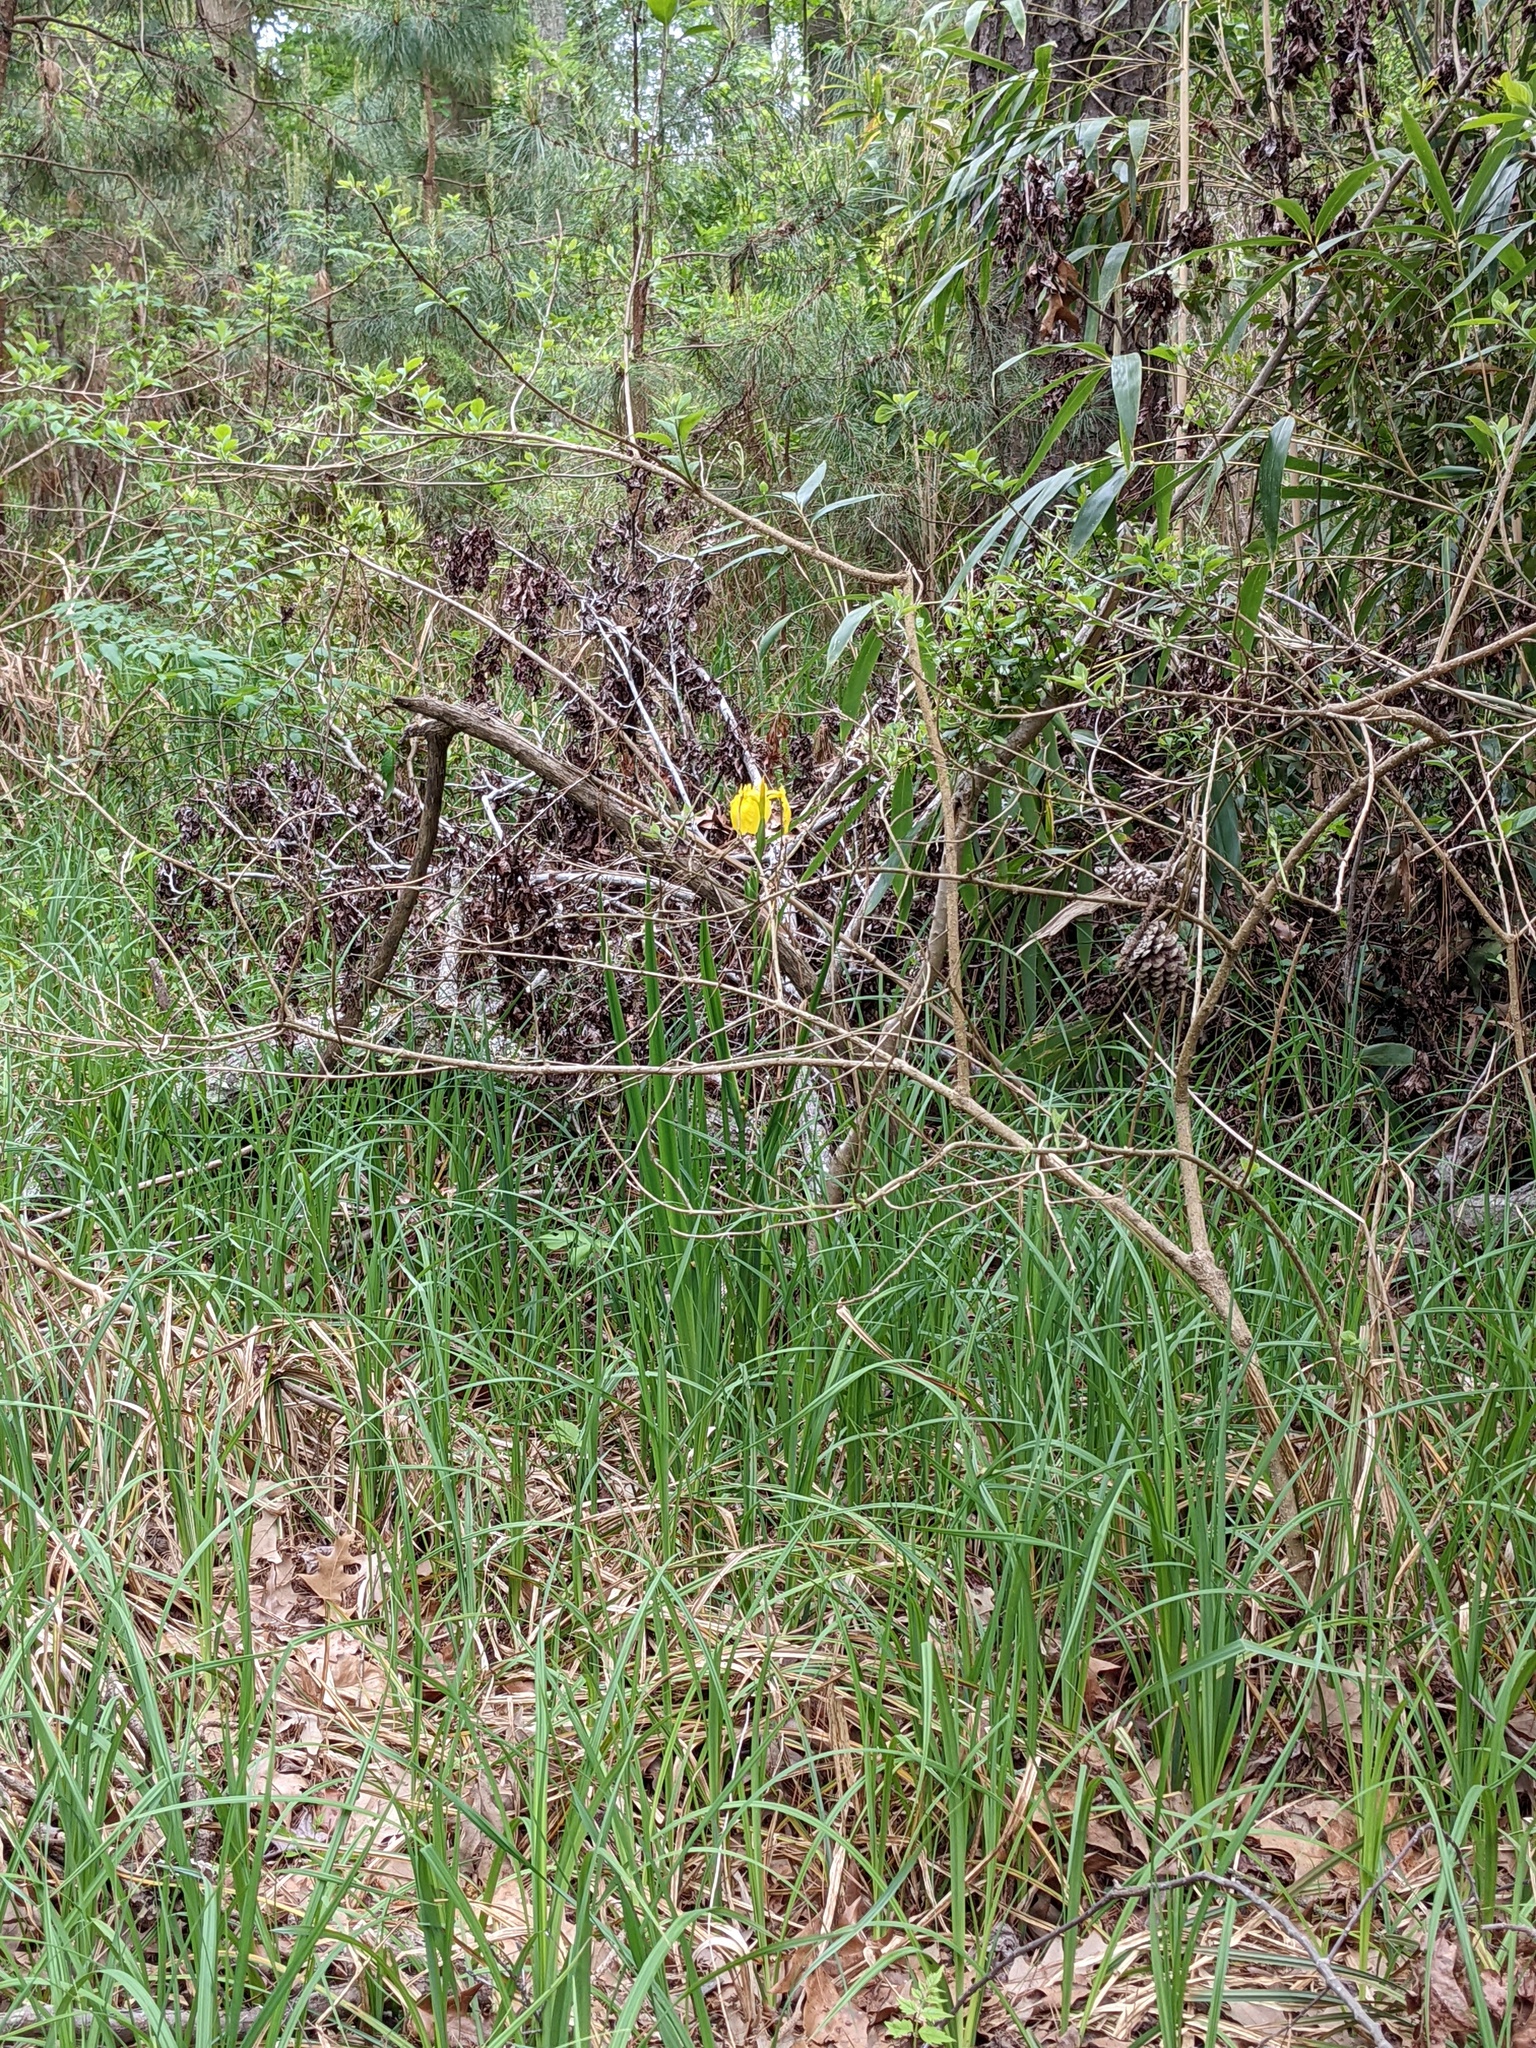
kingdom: Plantae
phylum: Tracheophyta
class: Liliopsida
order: Asparagales
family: Iridaceae
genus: Iris
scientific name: Iris pseudacorus
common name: Yellow flag
